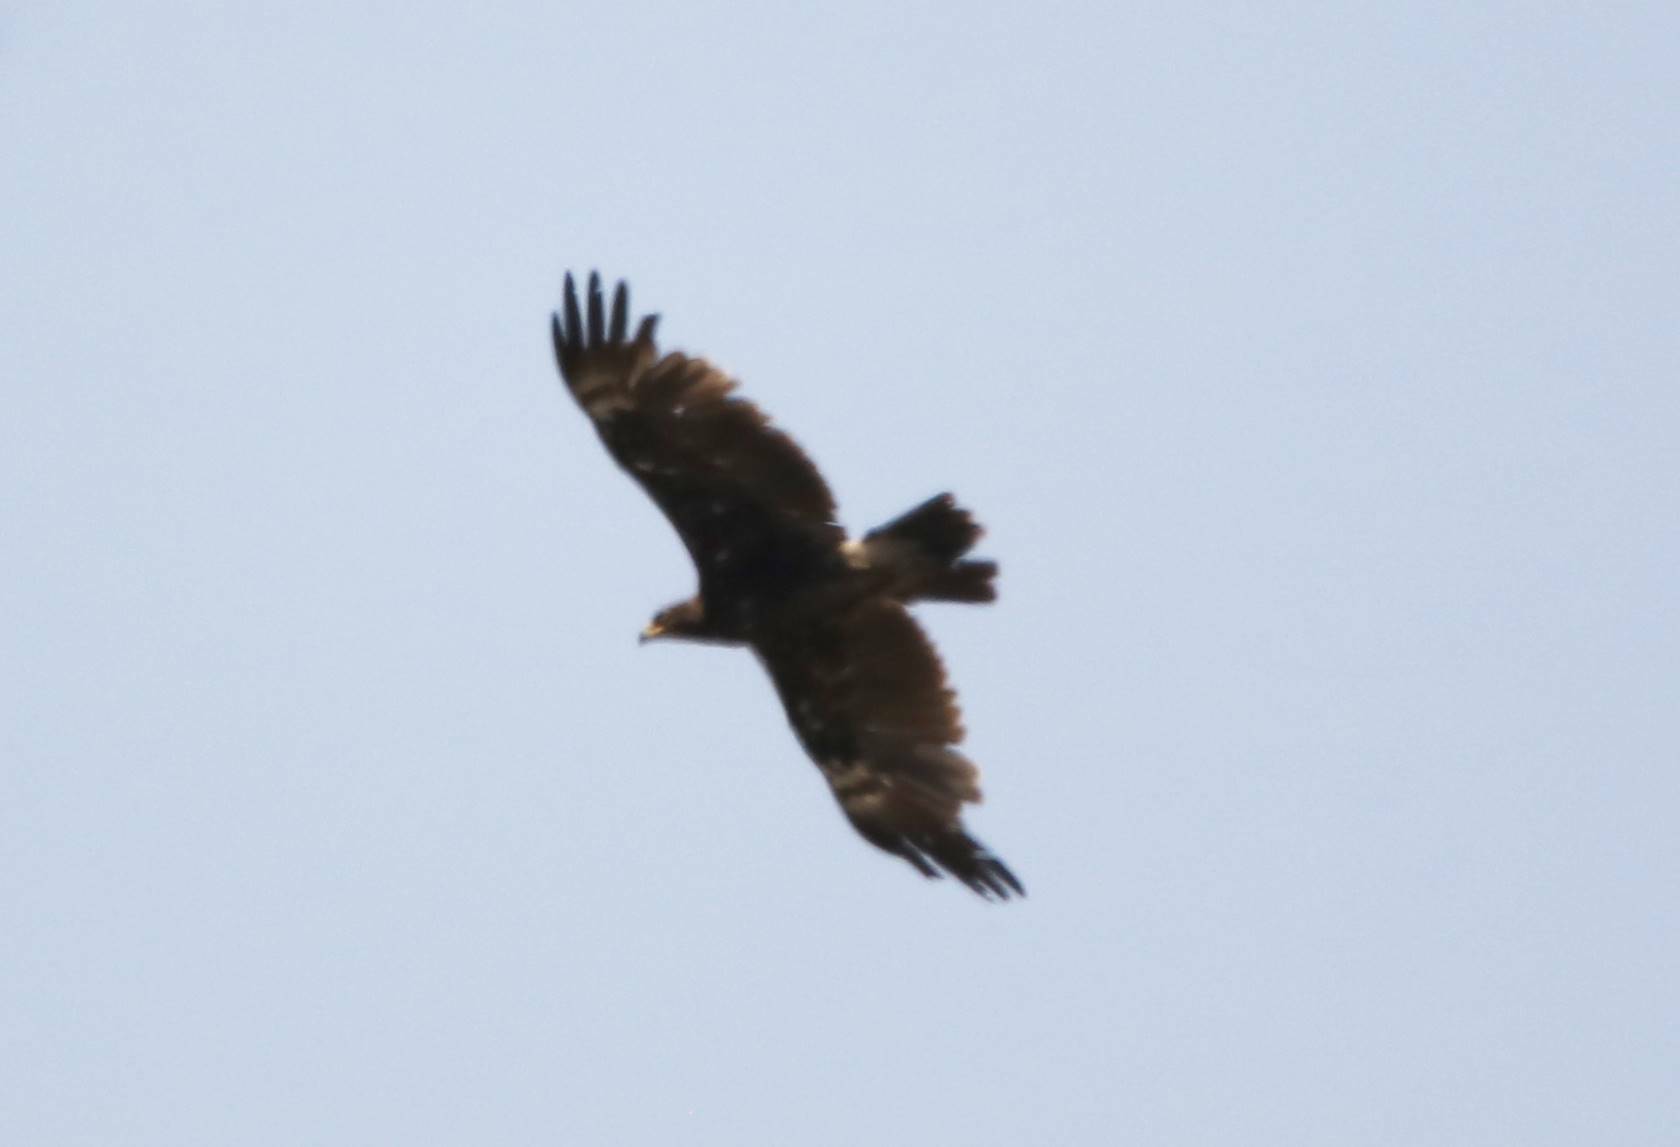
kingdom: Animalia
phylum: Chordata
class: Aves
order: Accipitriformes
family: Accipitridae
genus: Aquila
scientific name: Aquila clanga
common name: Greater spotted eagle
